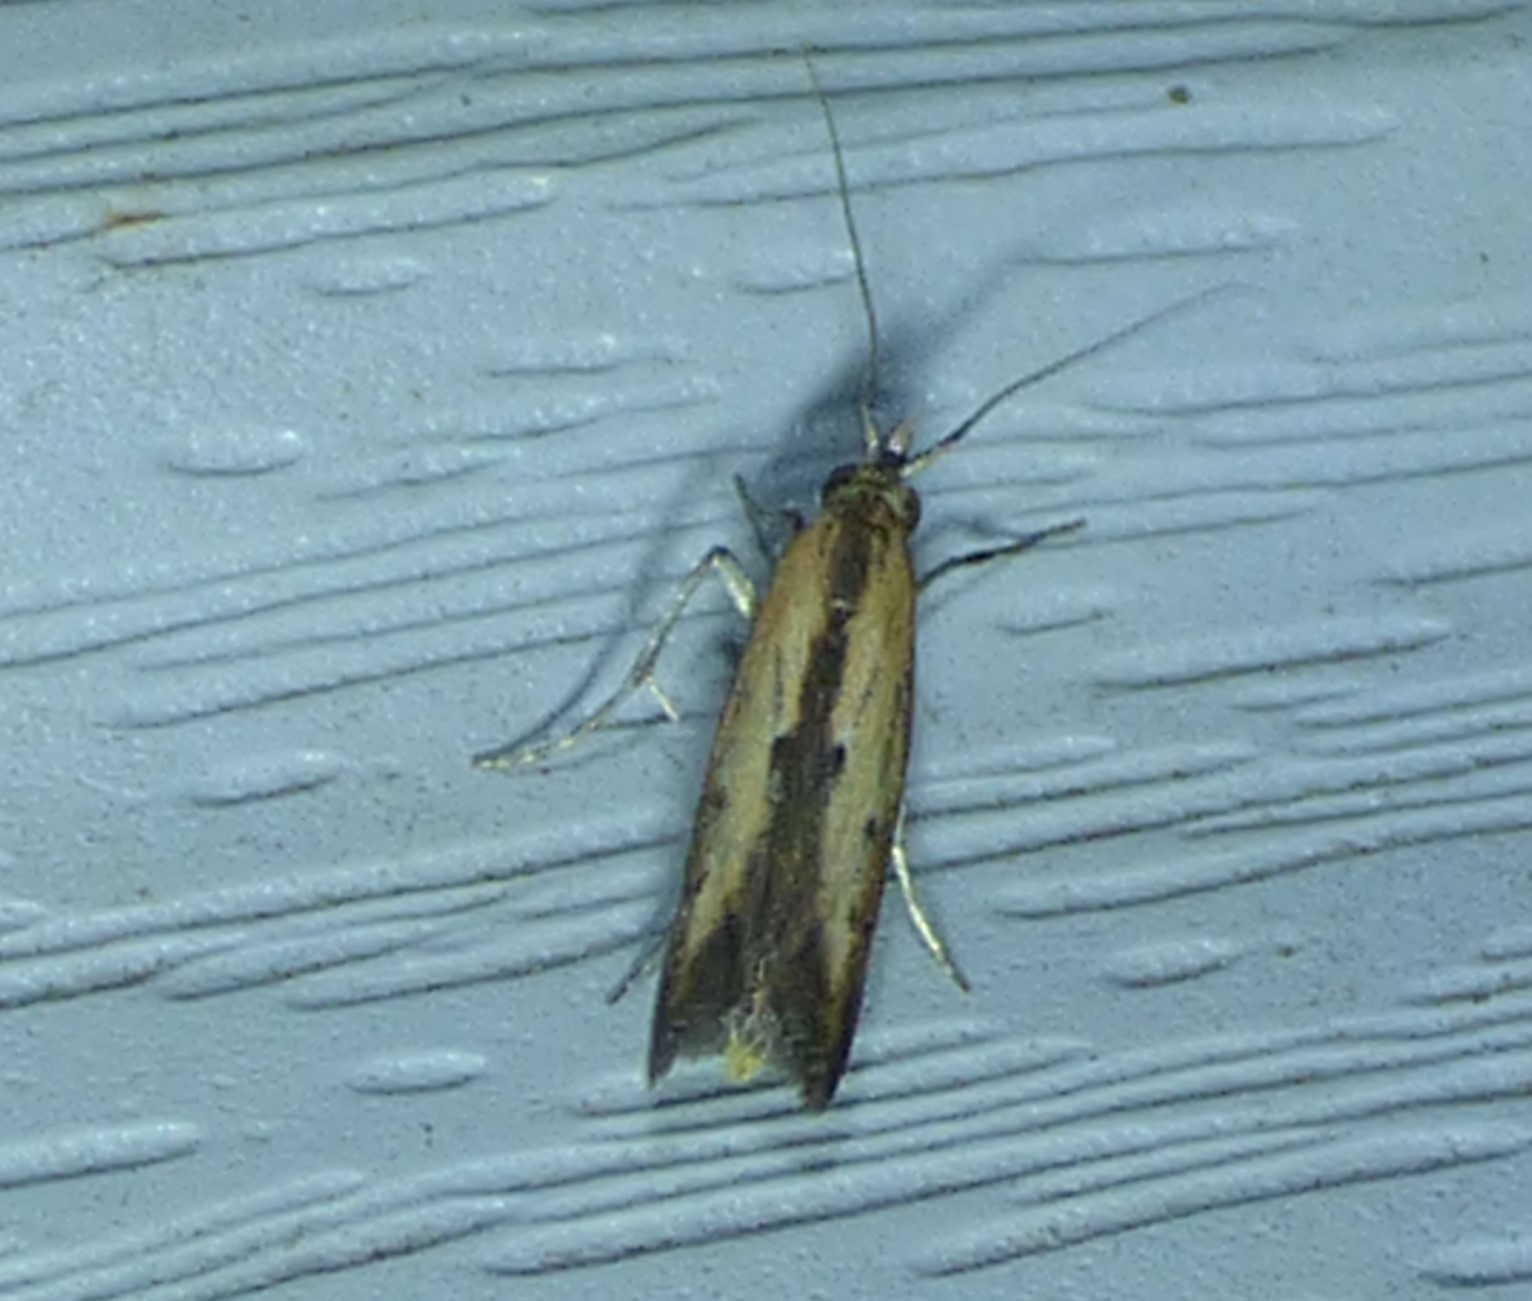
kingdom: Animalia
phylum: Arthropoda
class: Insecta
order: Lepidoptera
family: Pyralidae
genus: Elasmopalpus
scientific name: Elasmopalpus lignosella
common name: Lesser cornstalk borer
